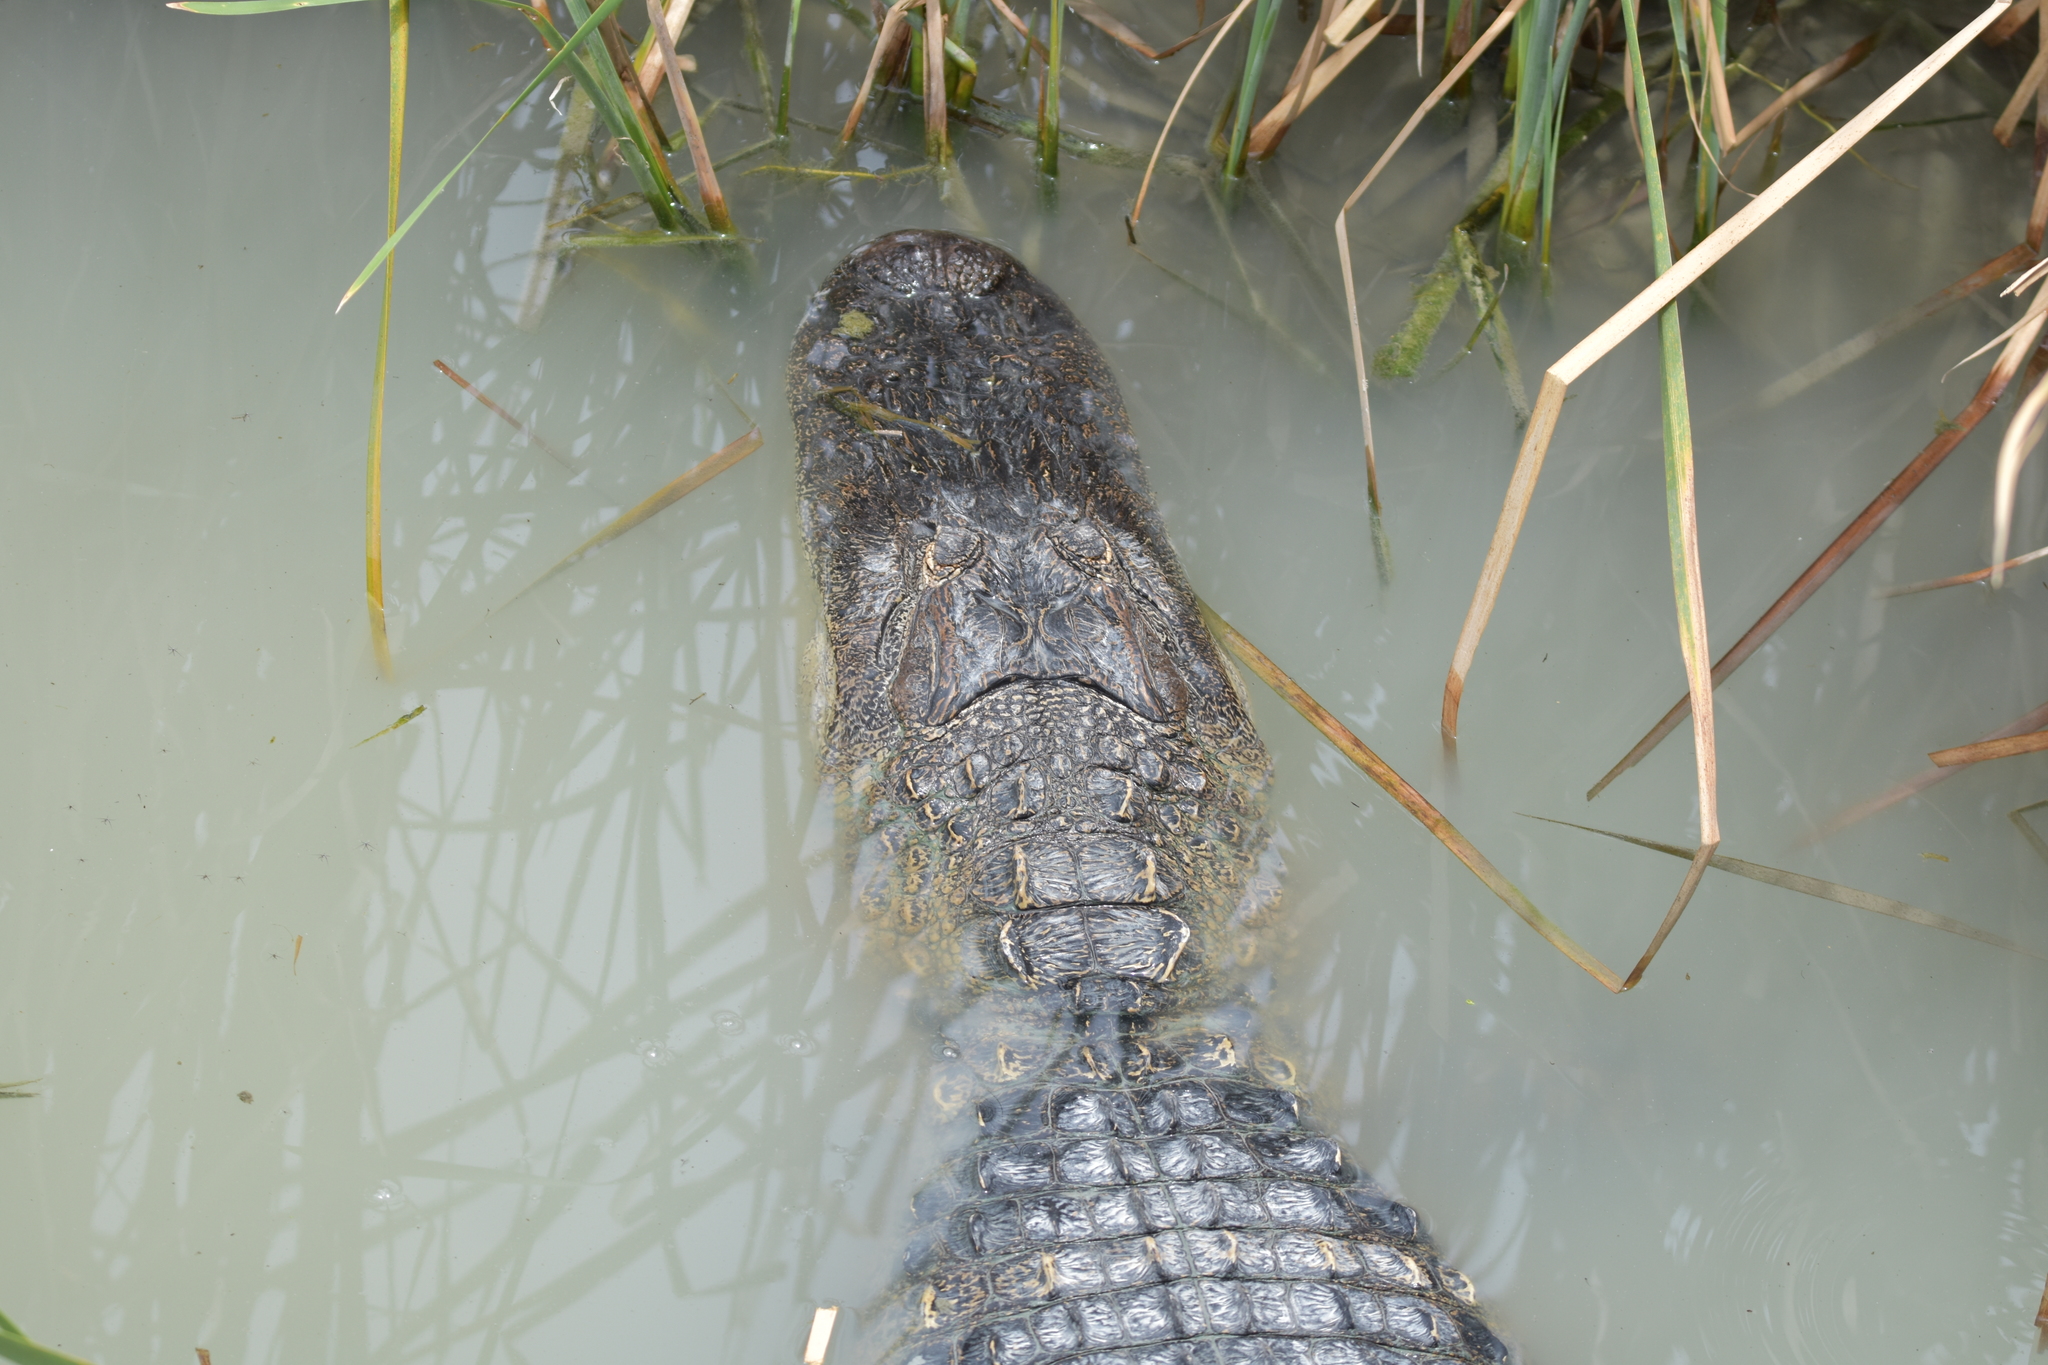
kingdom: Animalia
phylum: Chordata
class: Crocodylia
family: Alligatoridae
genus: Alligator
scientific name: Alligator mississippiensis
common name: American alligator
